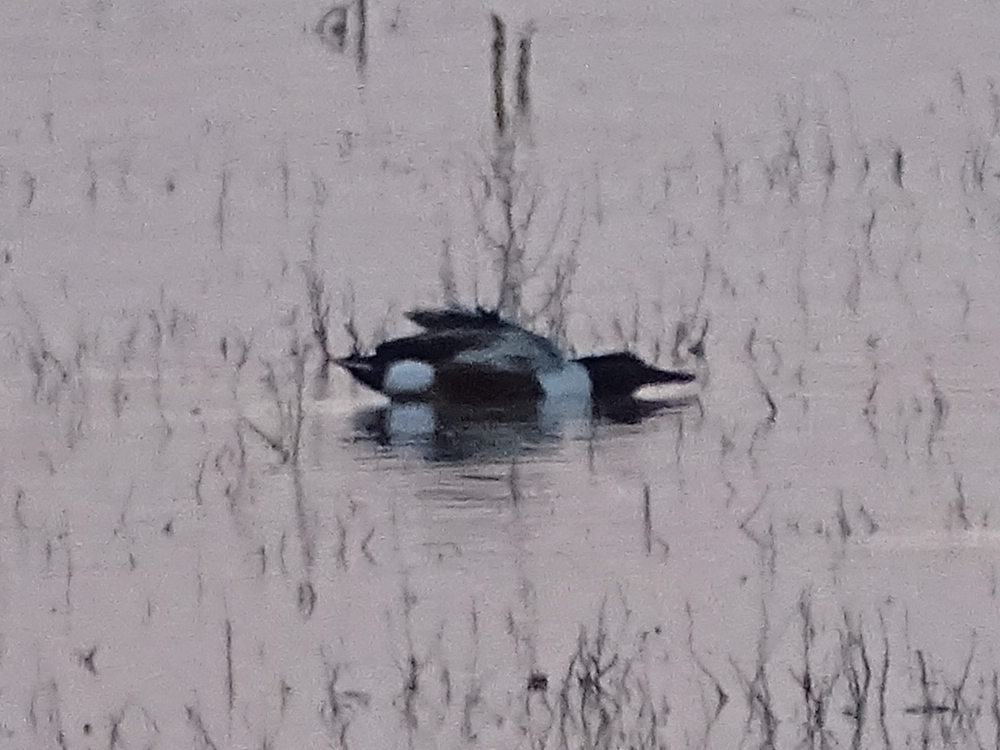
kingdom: Animalia
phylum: Chordata
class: Aves
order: Anseriformes
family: Anatidae
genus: Spatula
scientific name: Spatula clypeata
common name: Northern shoveler
